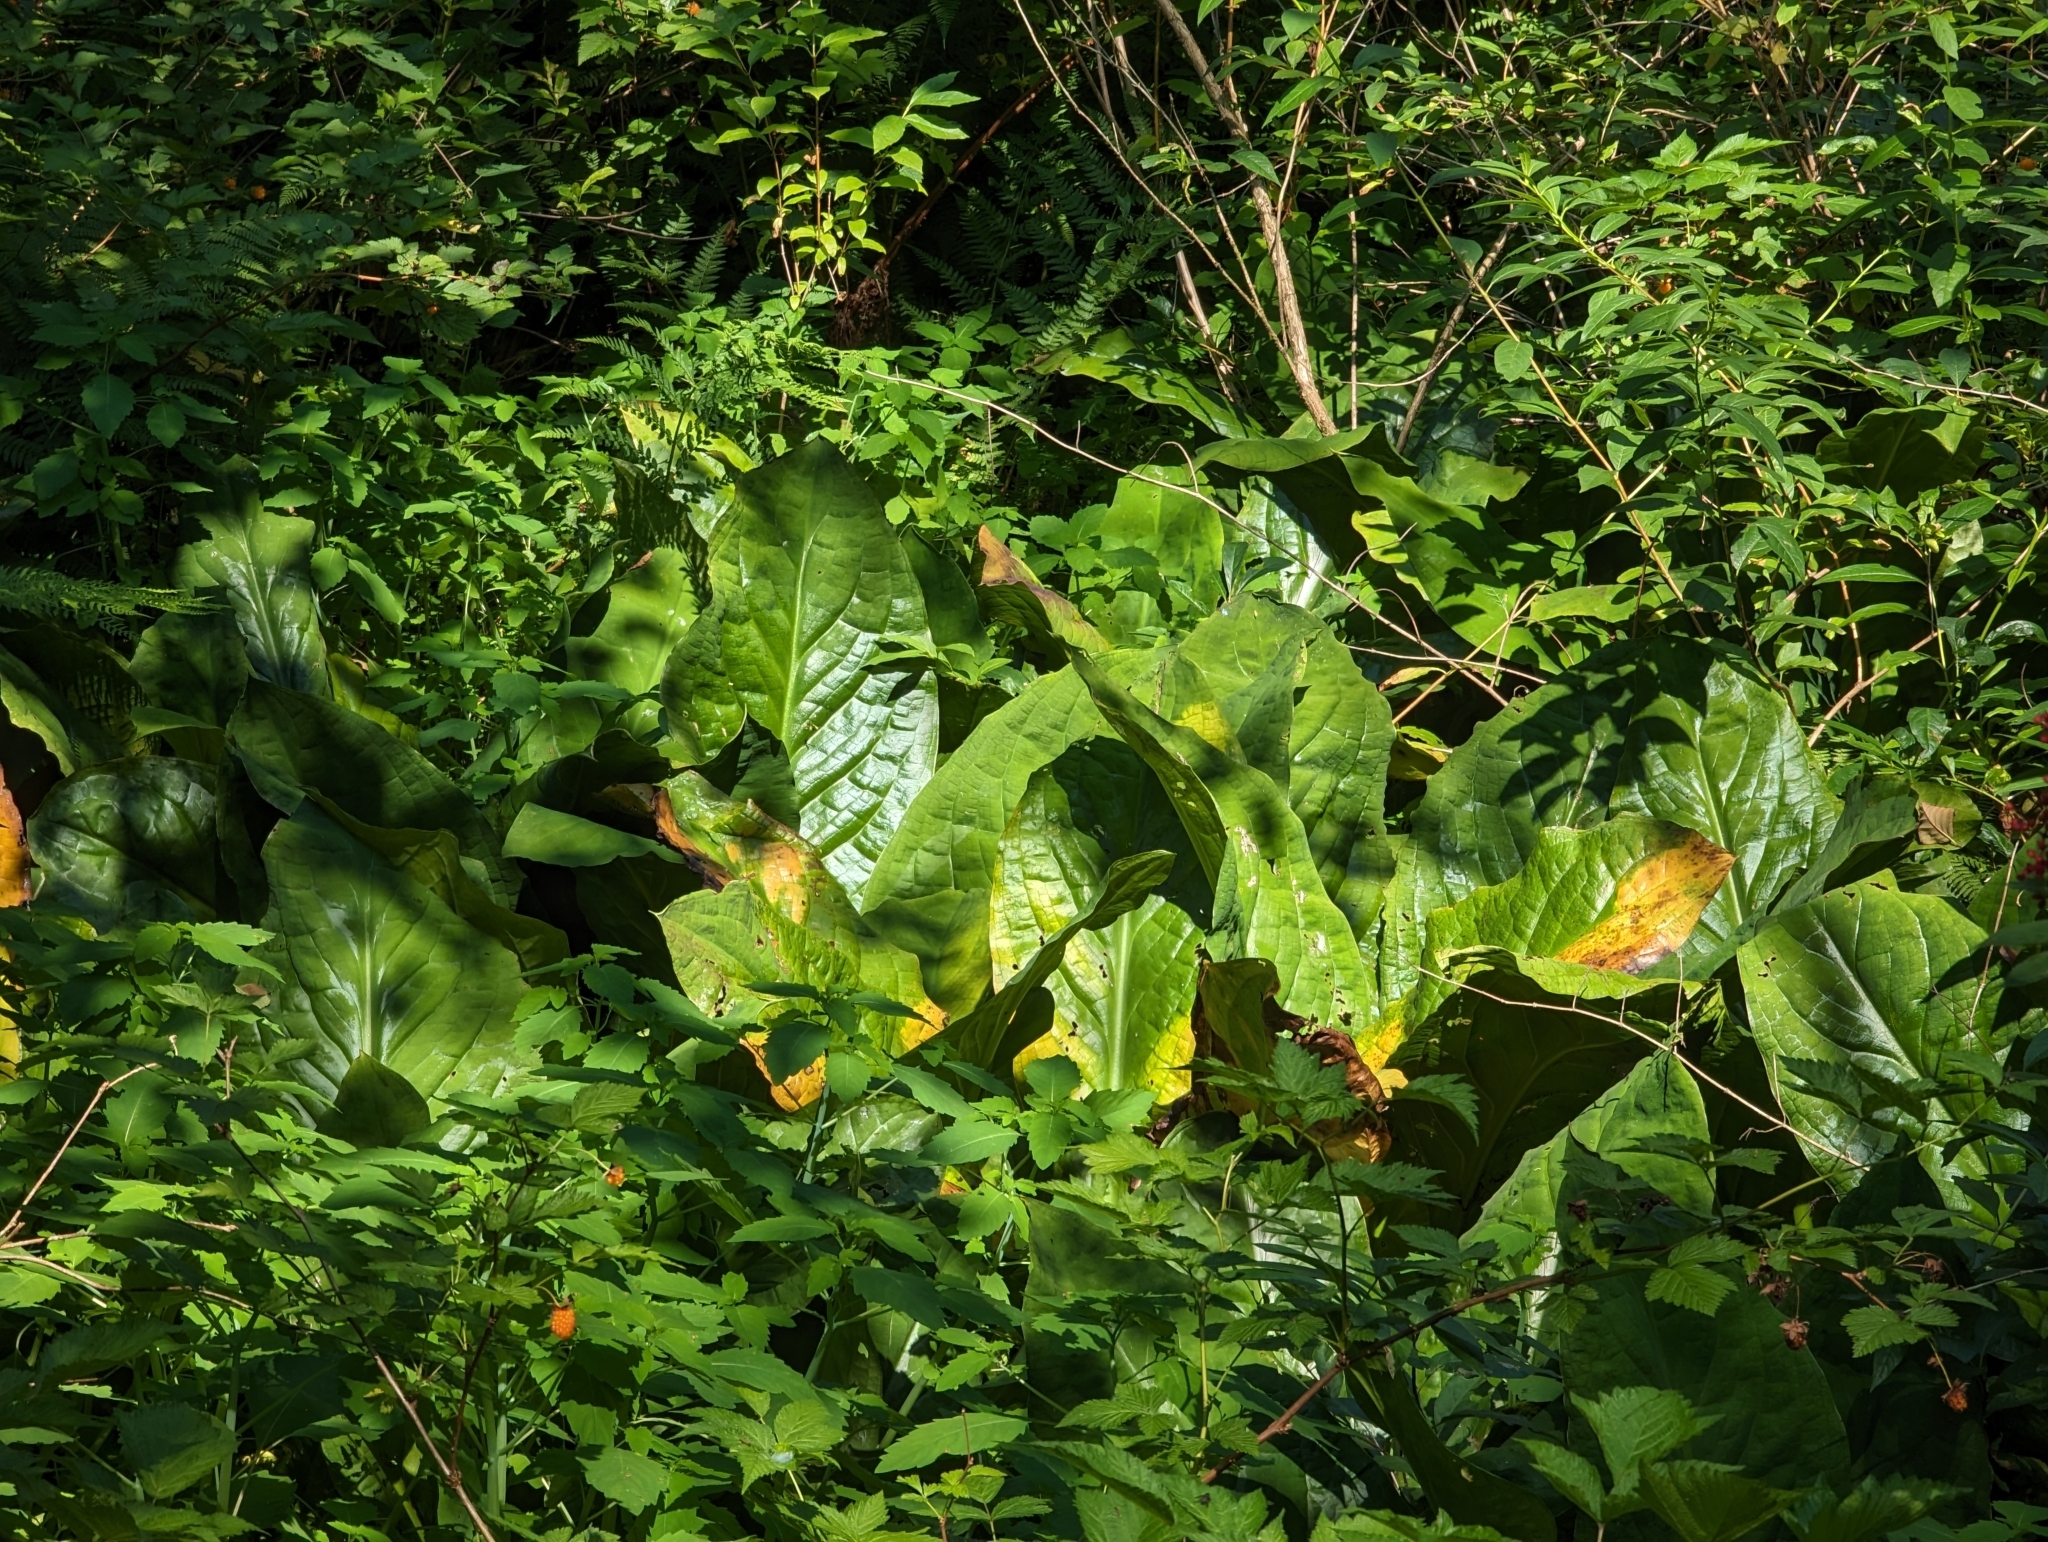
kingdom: Plantae
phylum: Tracheophyta
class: Liliopsida
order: Alismatales
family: Araceae
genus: Lysichiton
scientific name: Lysichiton americanus
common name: American skunk cabbage
